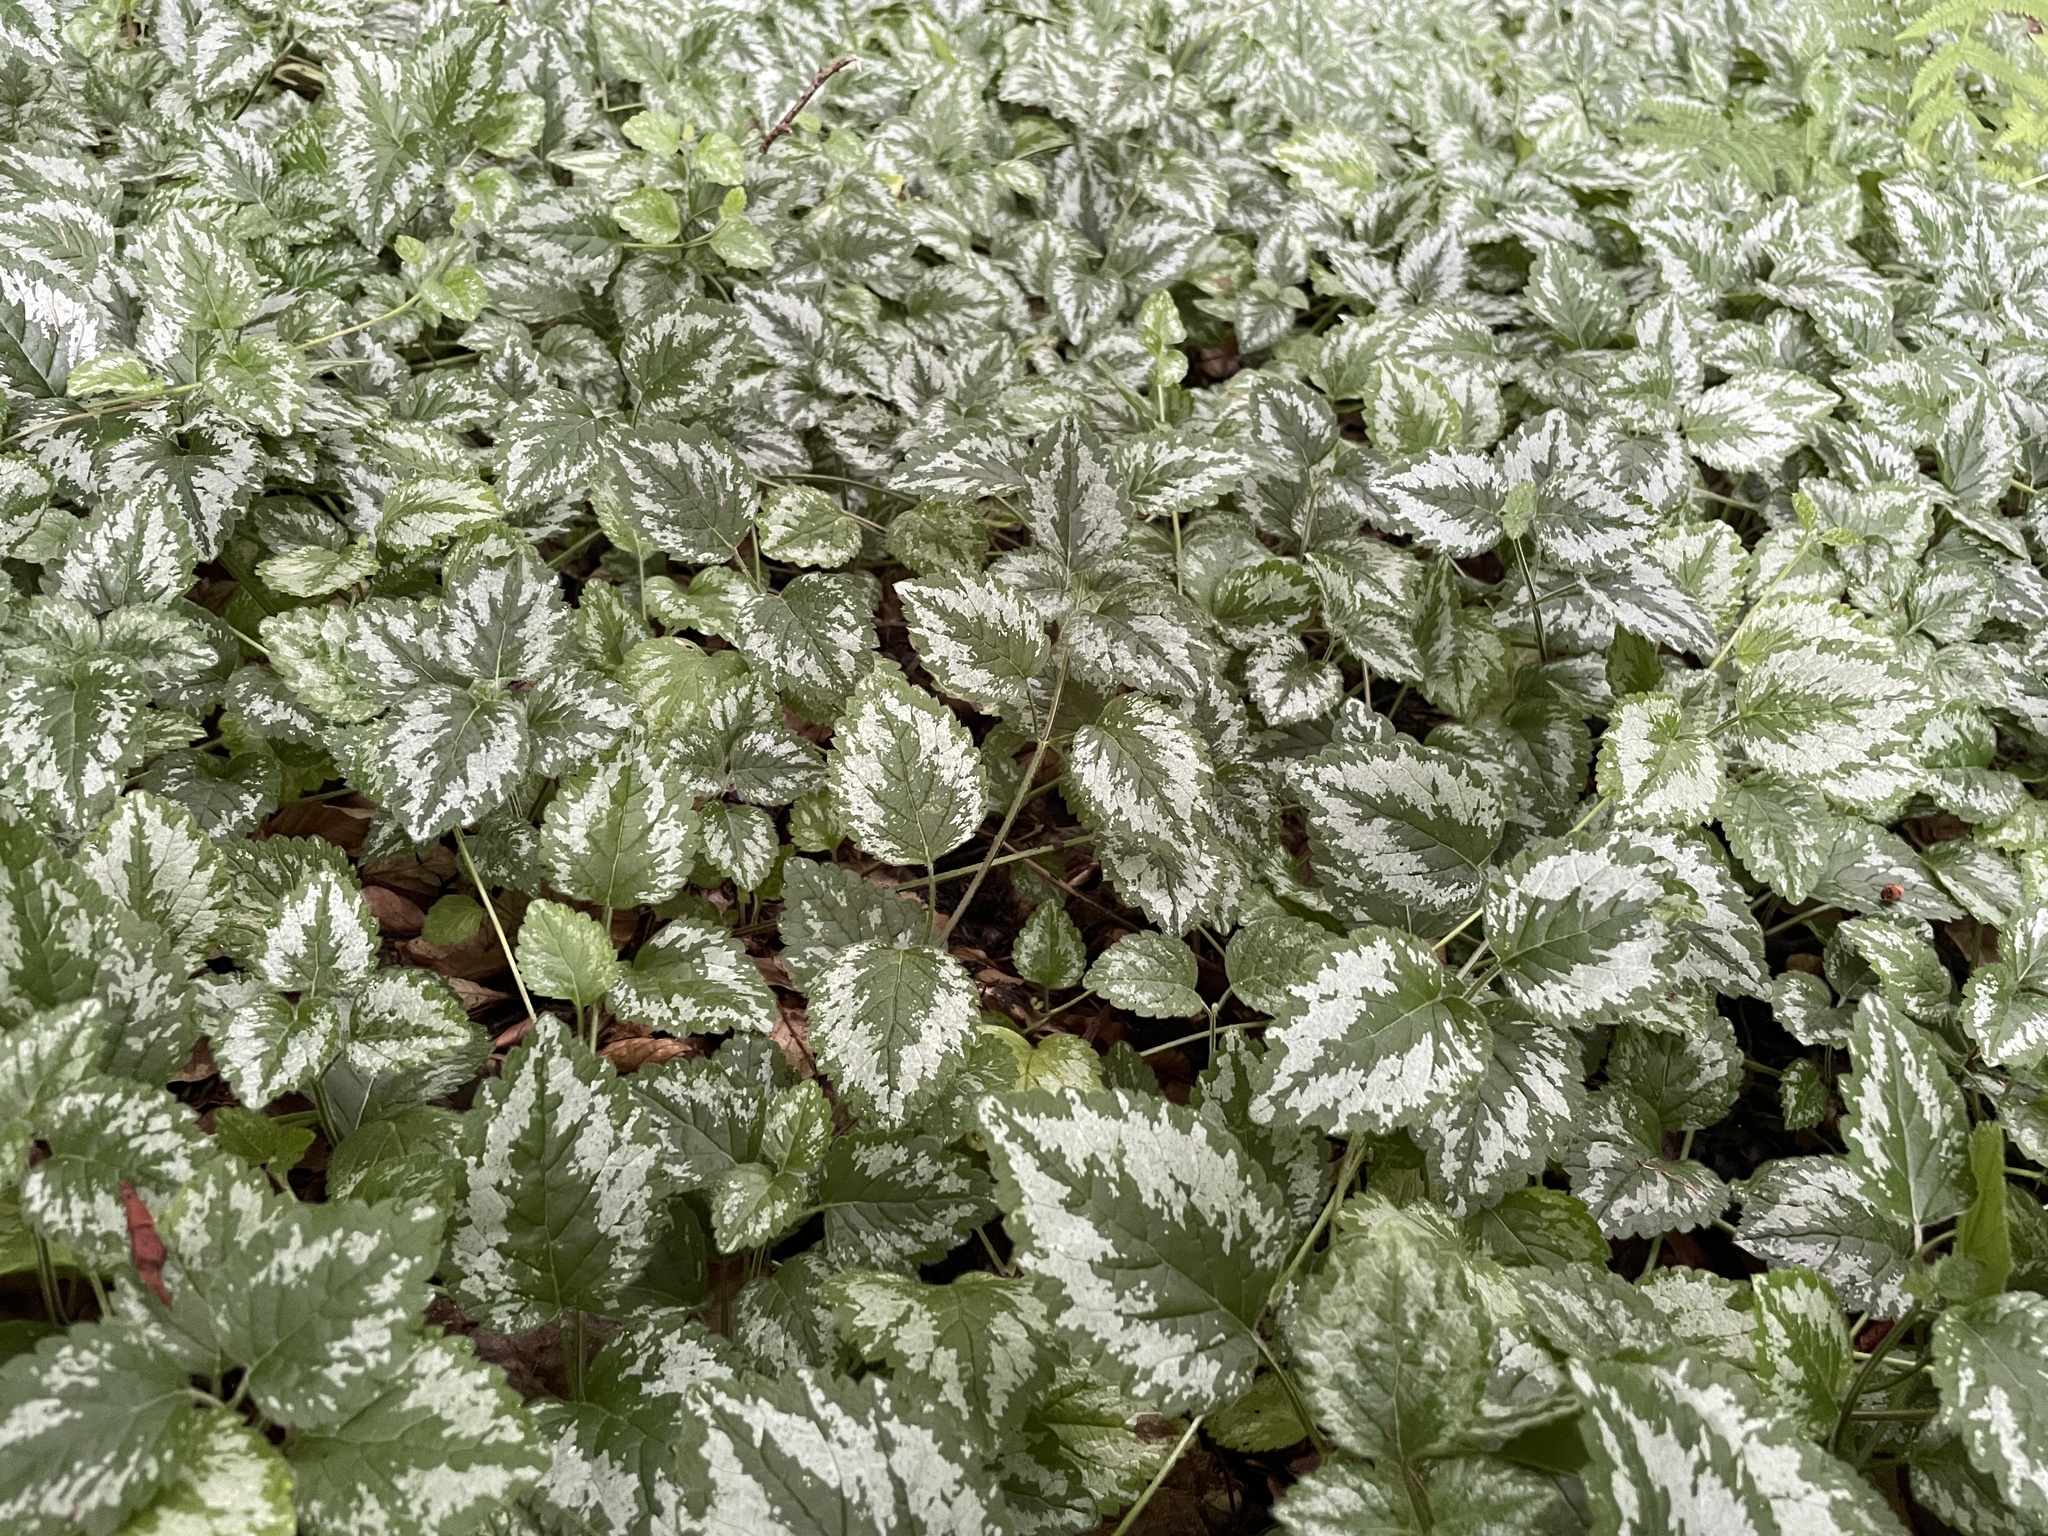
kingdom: Plantae
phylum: Tracheophyta
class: Magnoliopsida
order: Lamiales
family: Lamiaceae
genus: Lamium
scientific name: Lamium galeobdolon
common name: Yellow archangel
